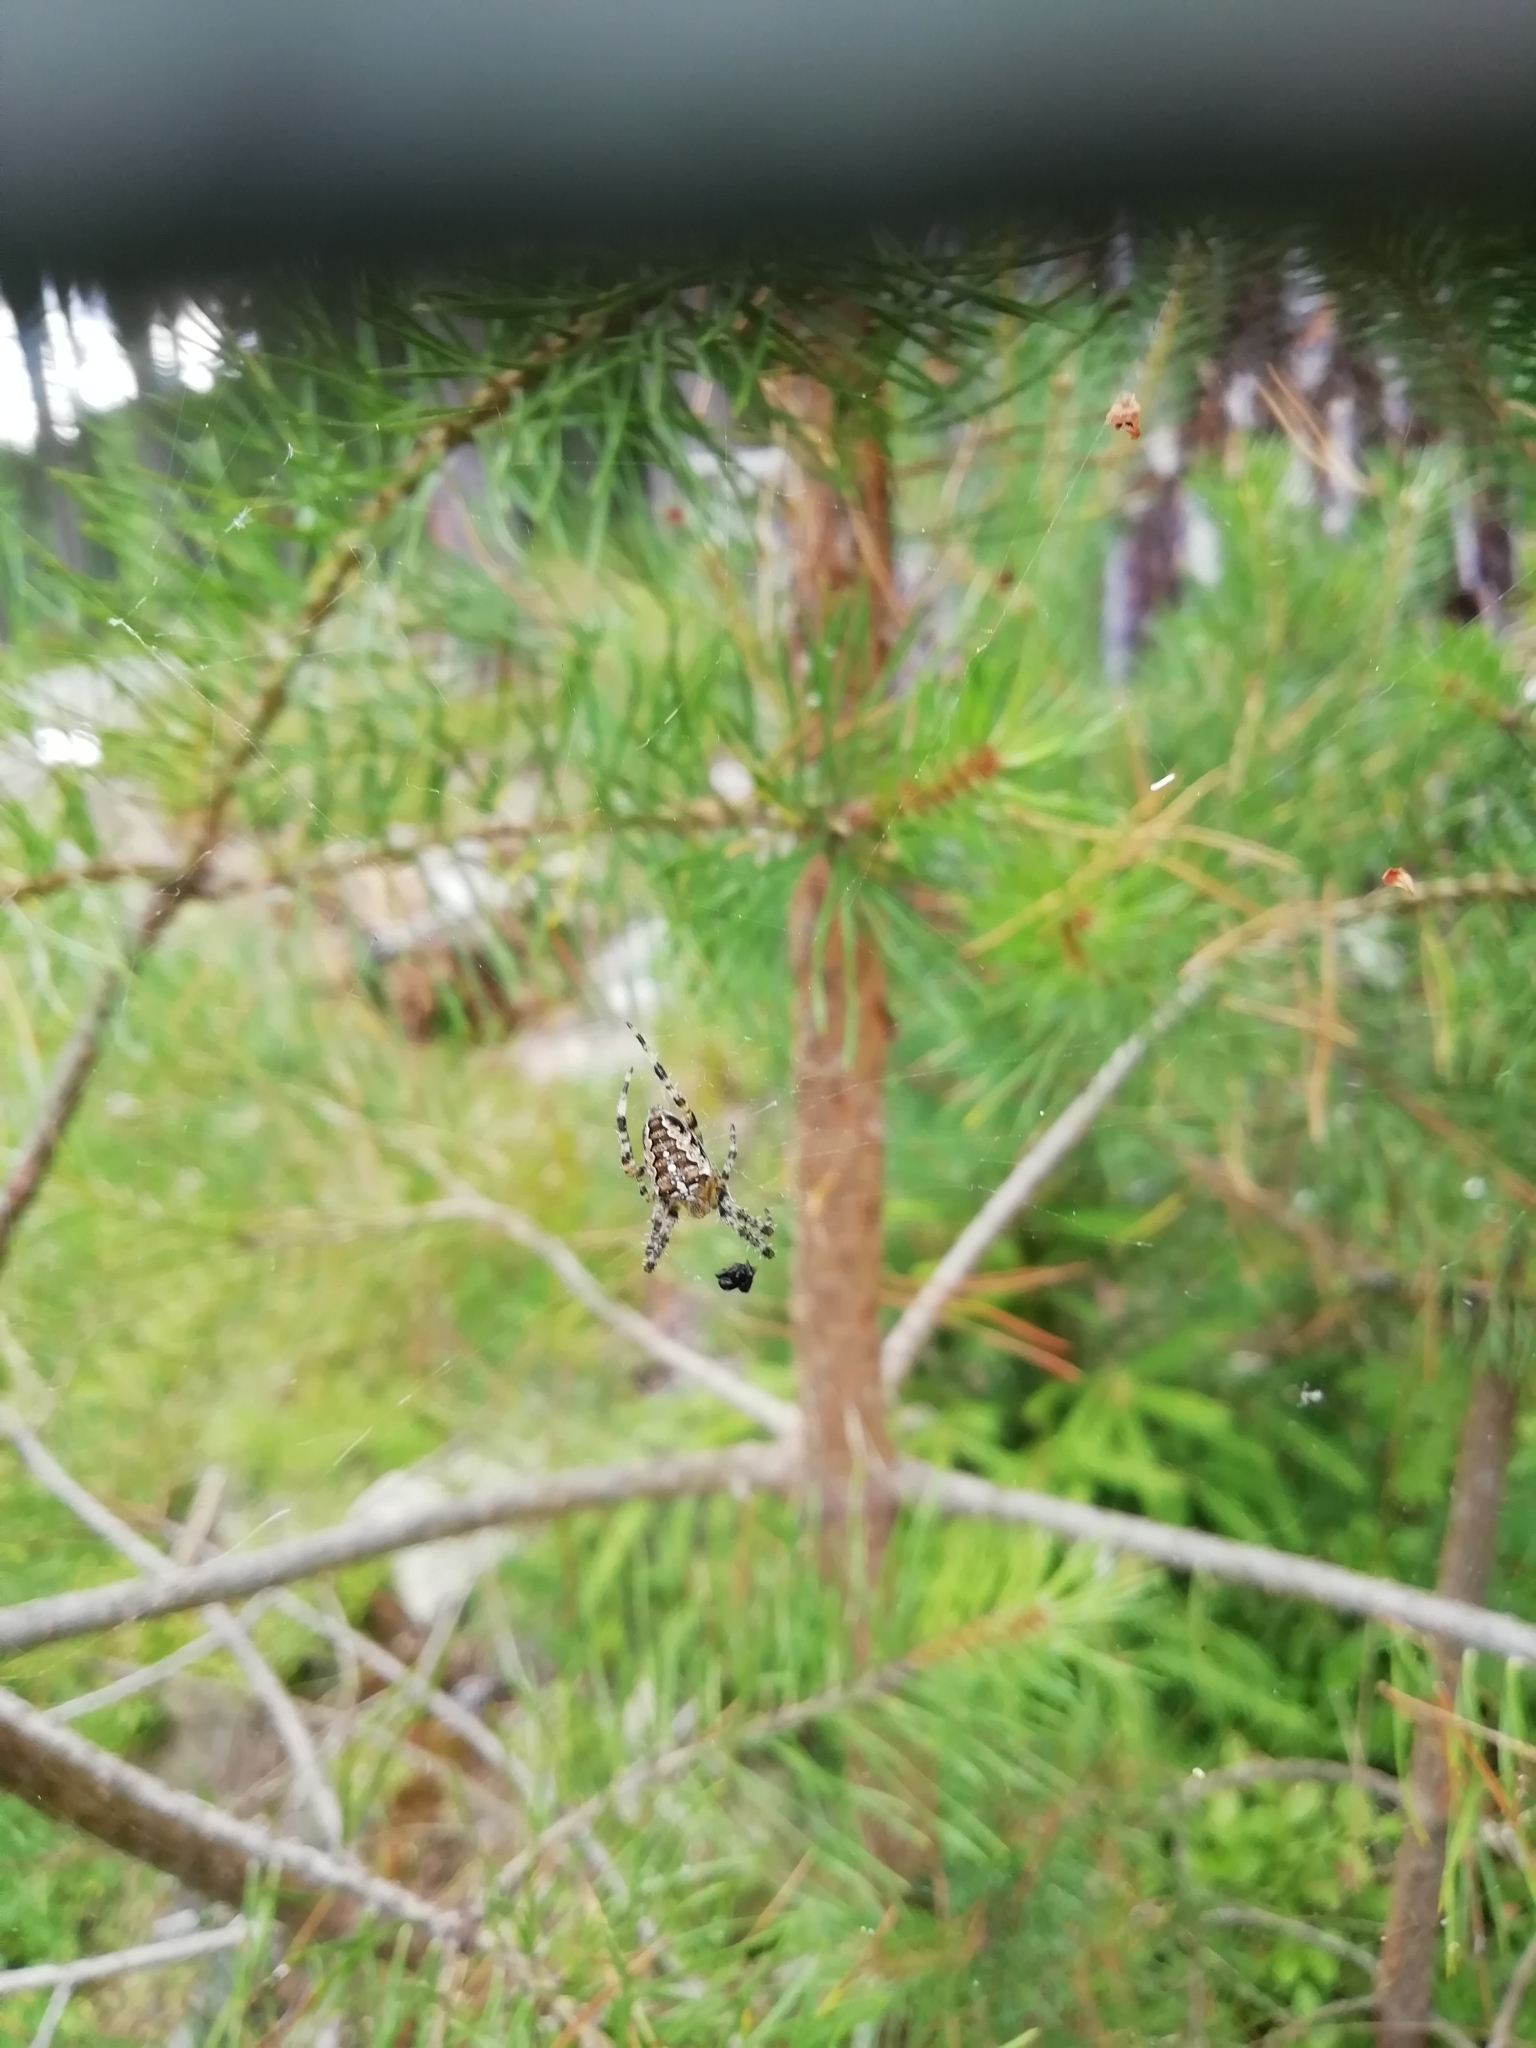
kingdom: Animalia
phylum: Arthropoda
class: Arachnida
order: Araneae
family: Araneidae
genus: Araneus
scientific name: Araneus diadematus
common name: Cross orbweaver
